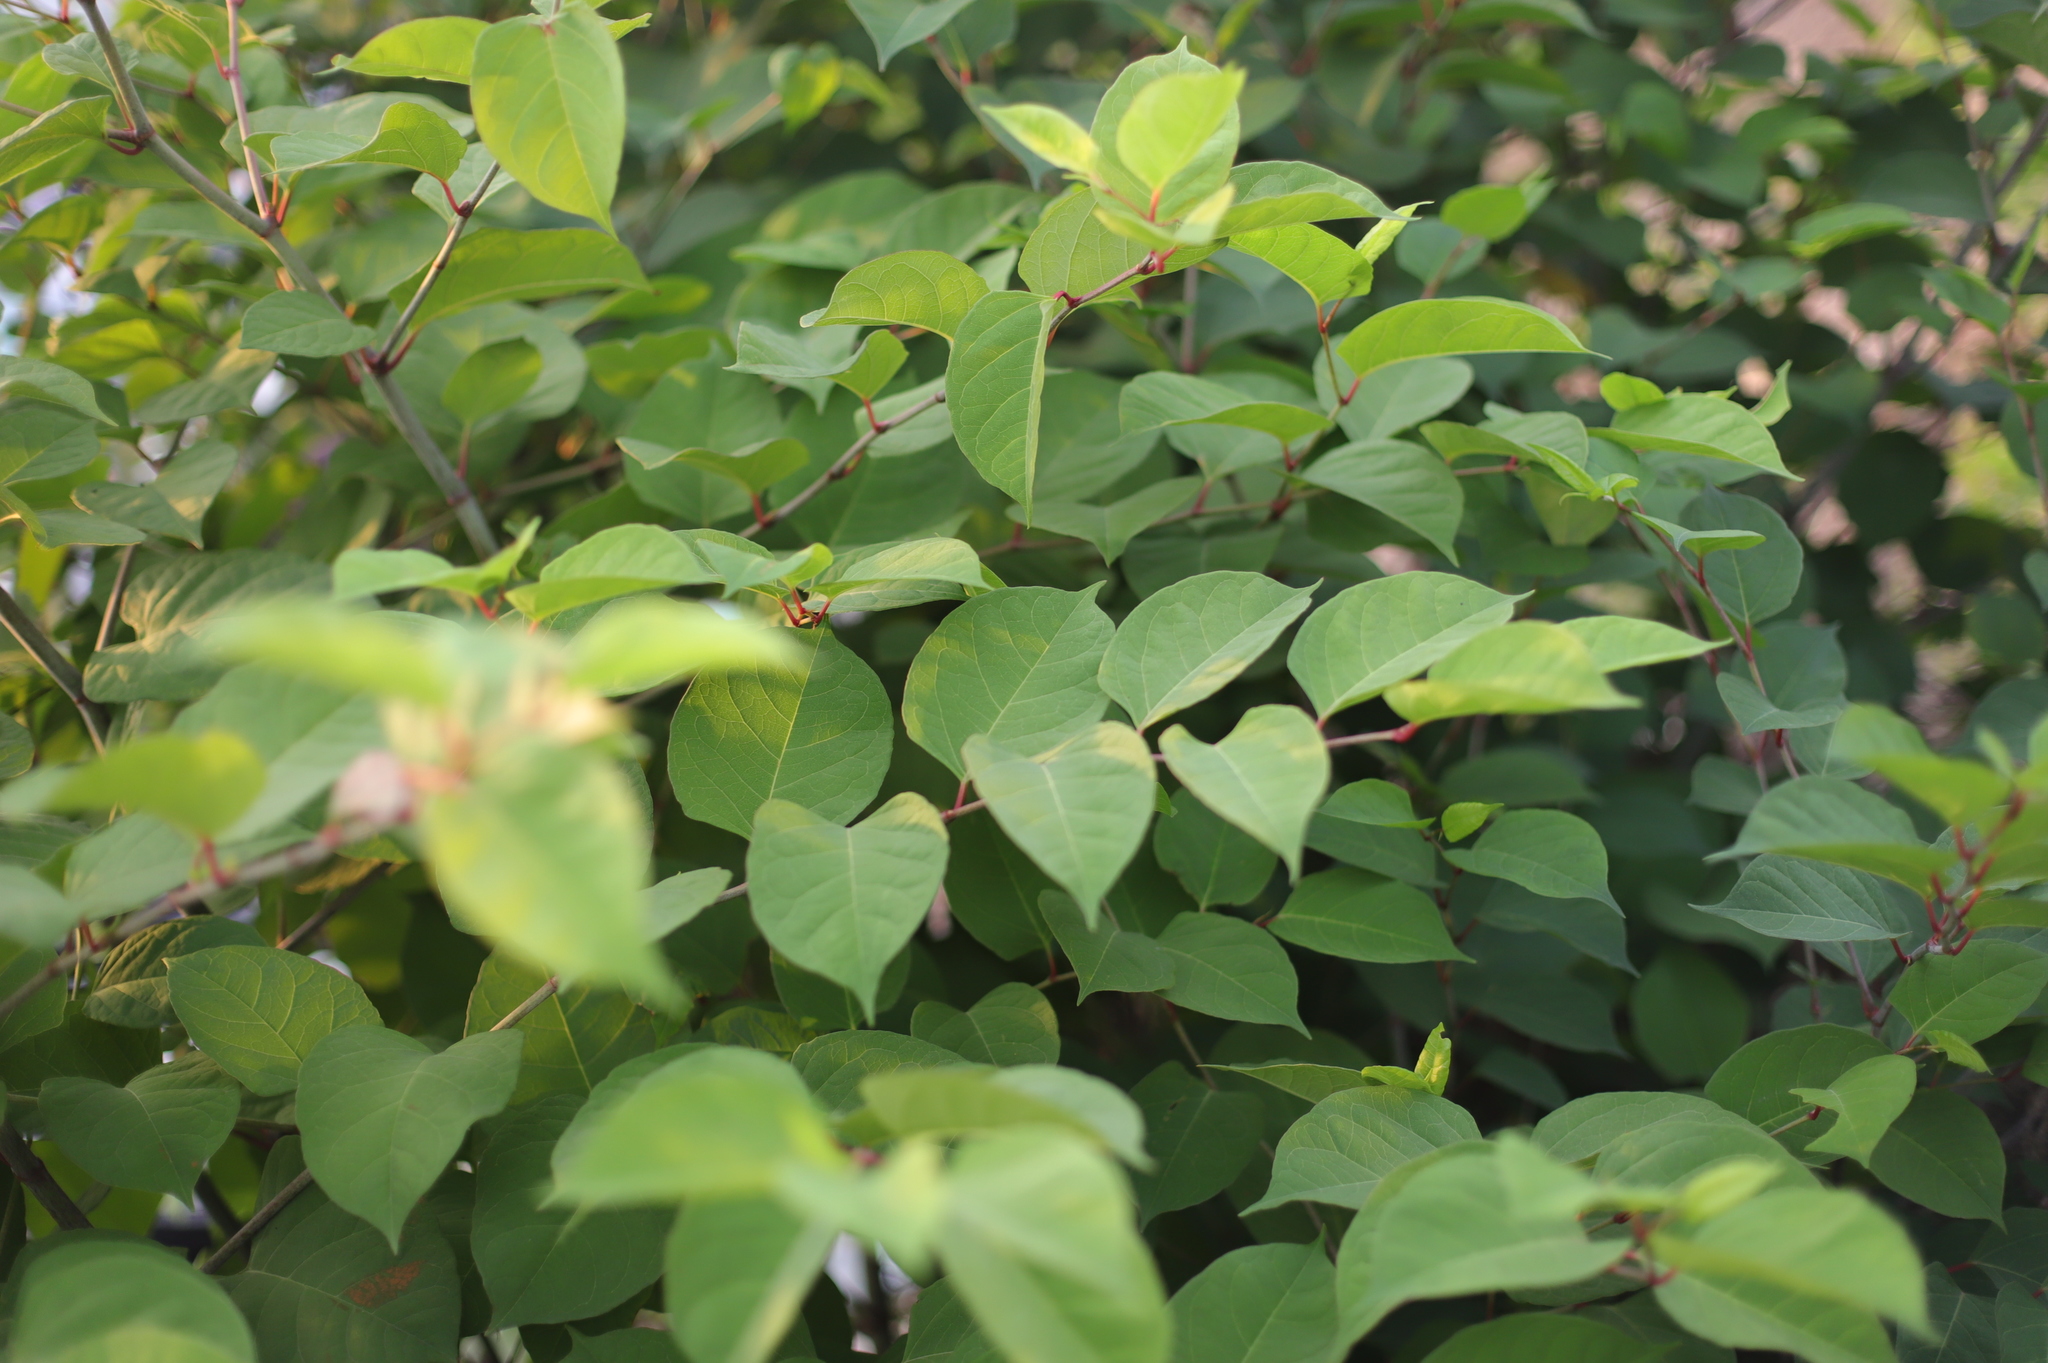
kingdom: Plantae
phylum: Tracheophyta
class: Magnoliopsida
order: Caryophyllales
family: Polygonaceae
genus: Reynoutria
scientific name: Reynoutria japonica
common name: Japanese knotweed
